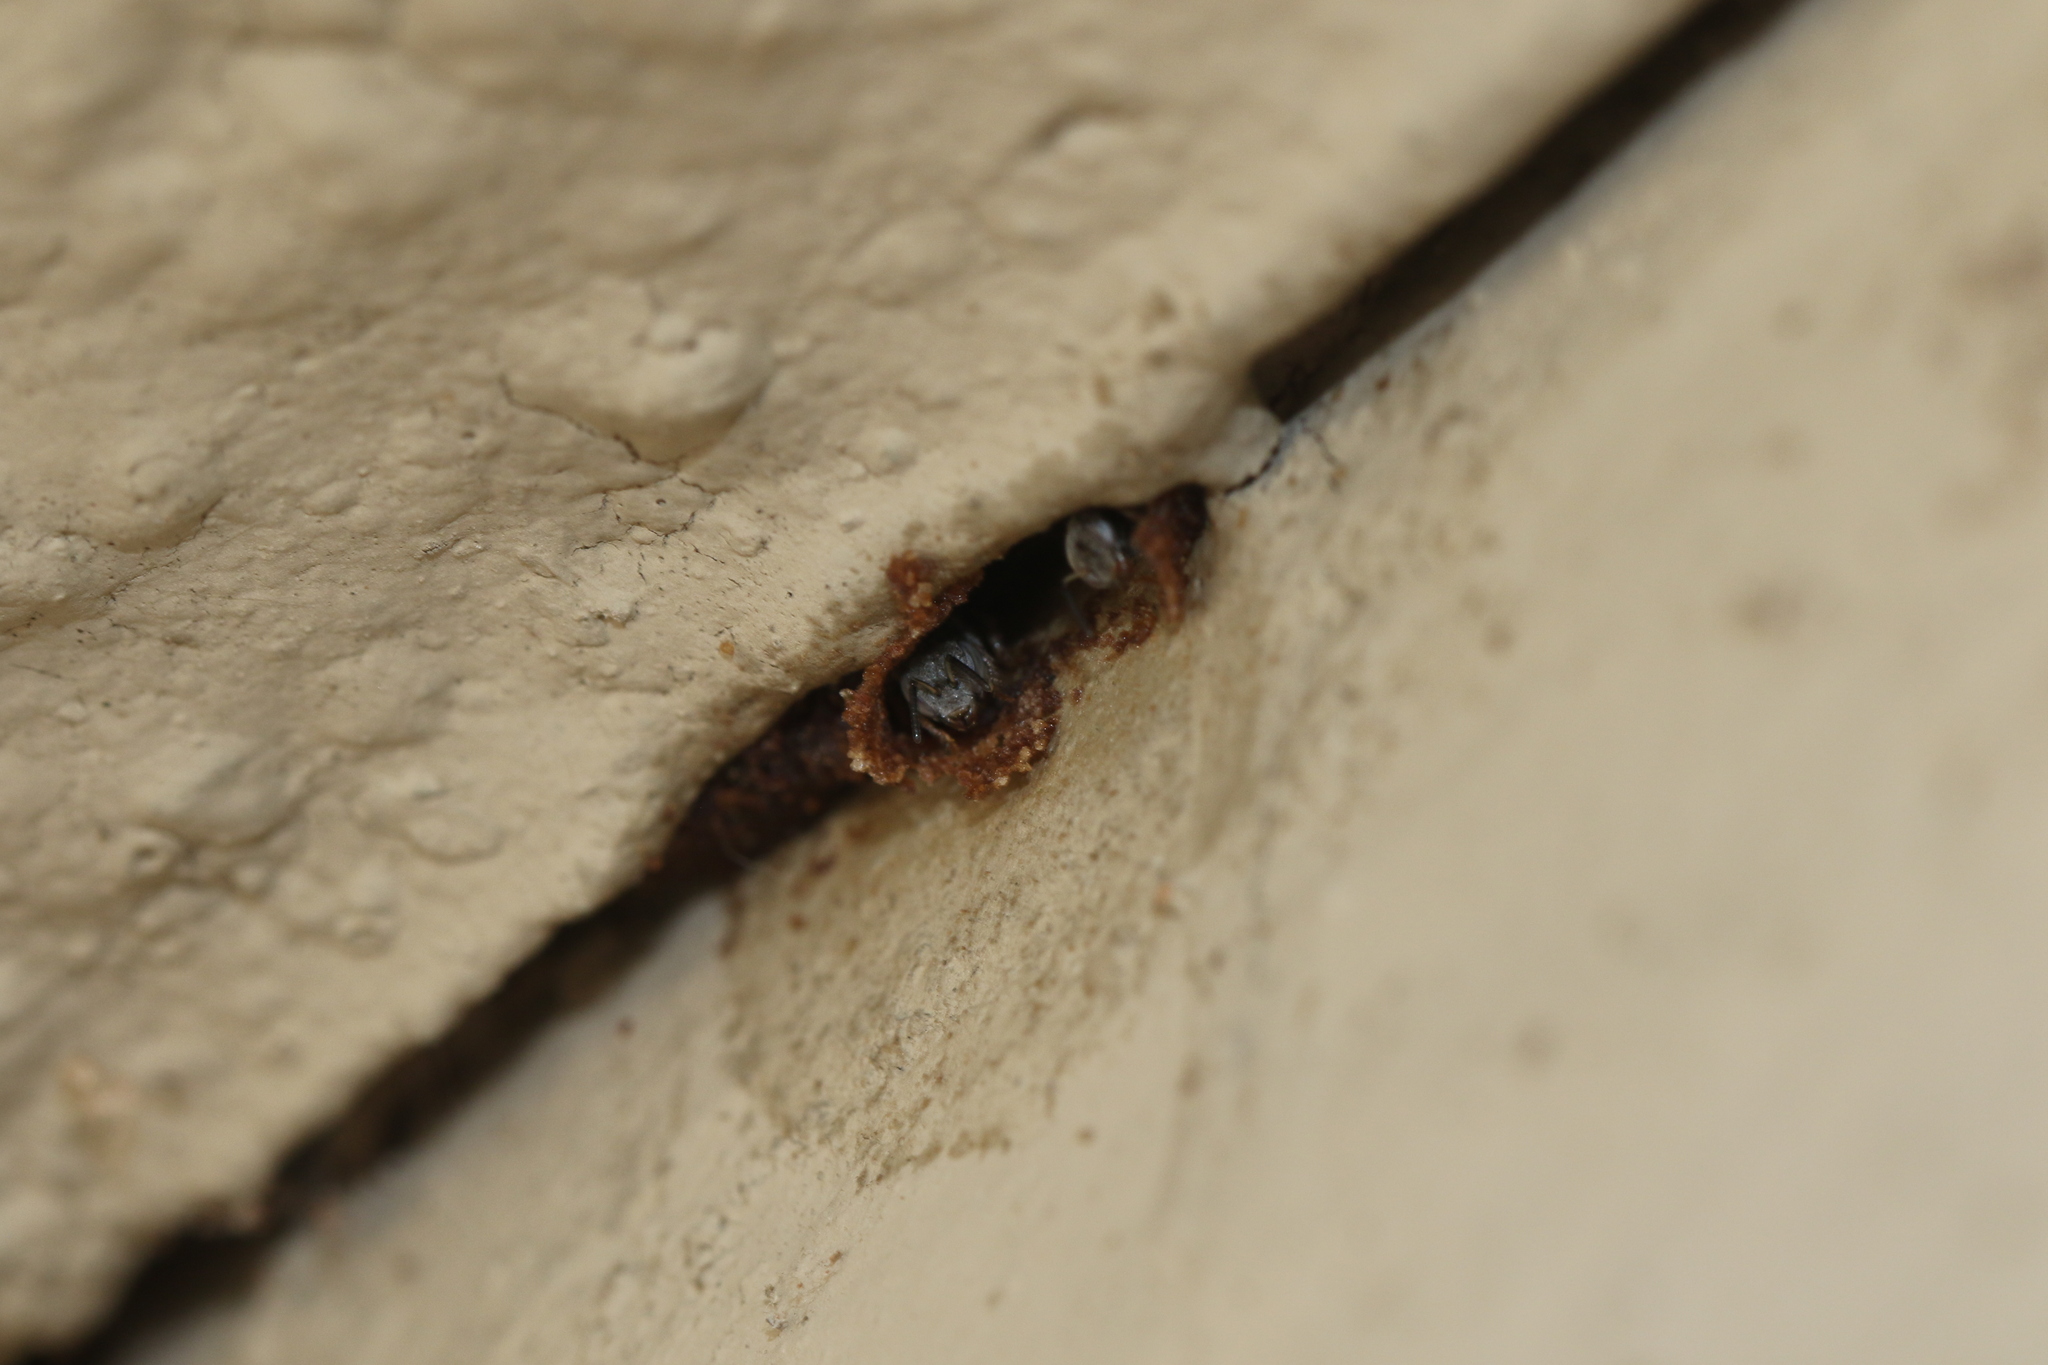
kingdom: Animalia
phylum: Arthropoda
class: Insecta
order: Hymenoptera
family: Apidae
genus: Friesella
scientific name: Friesella schrottkyi
